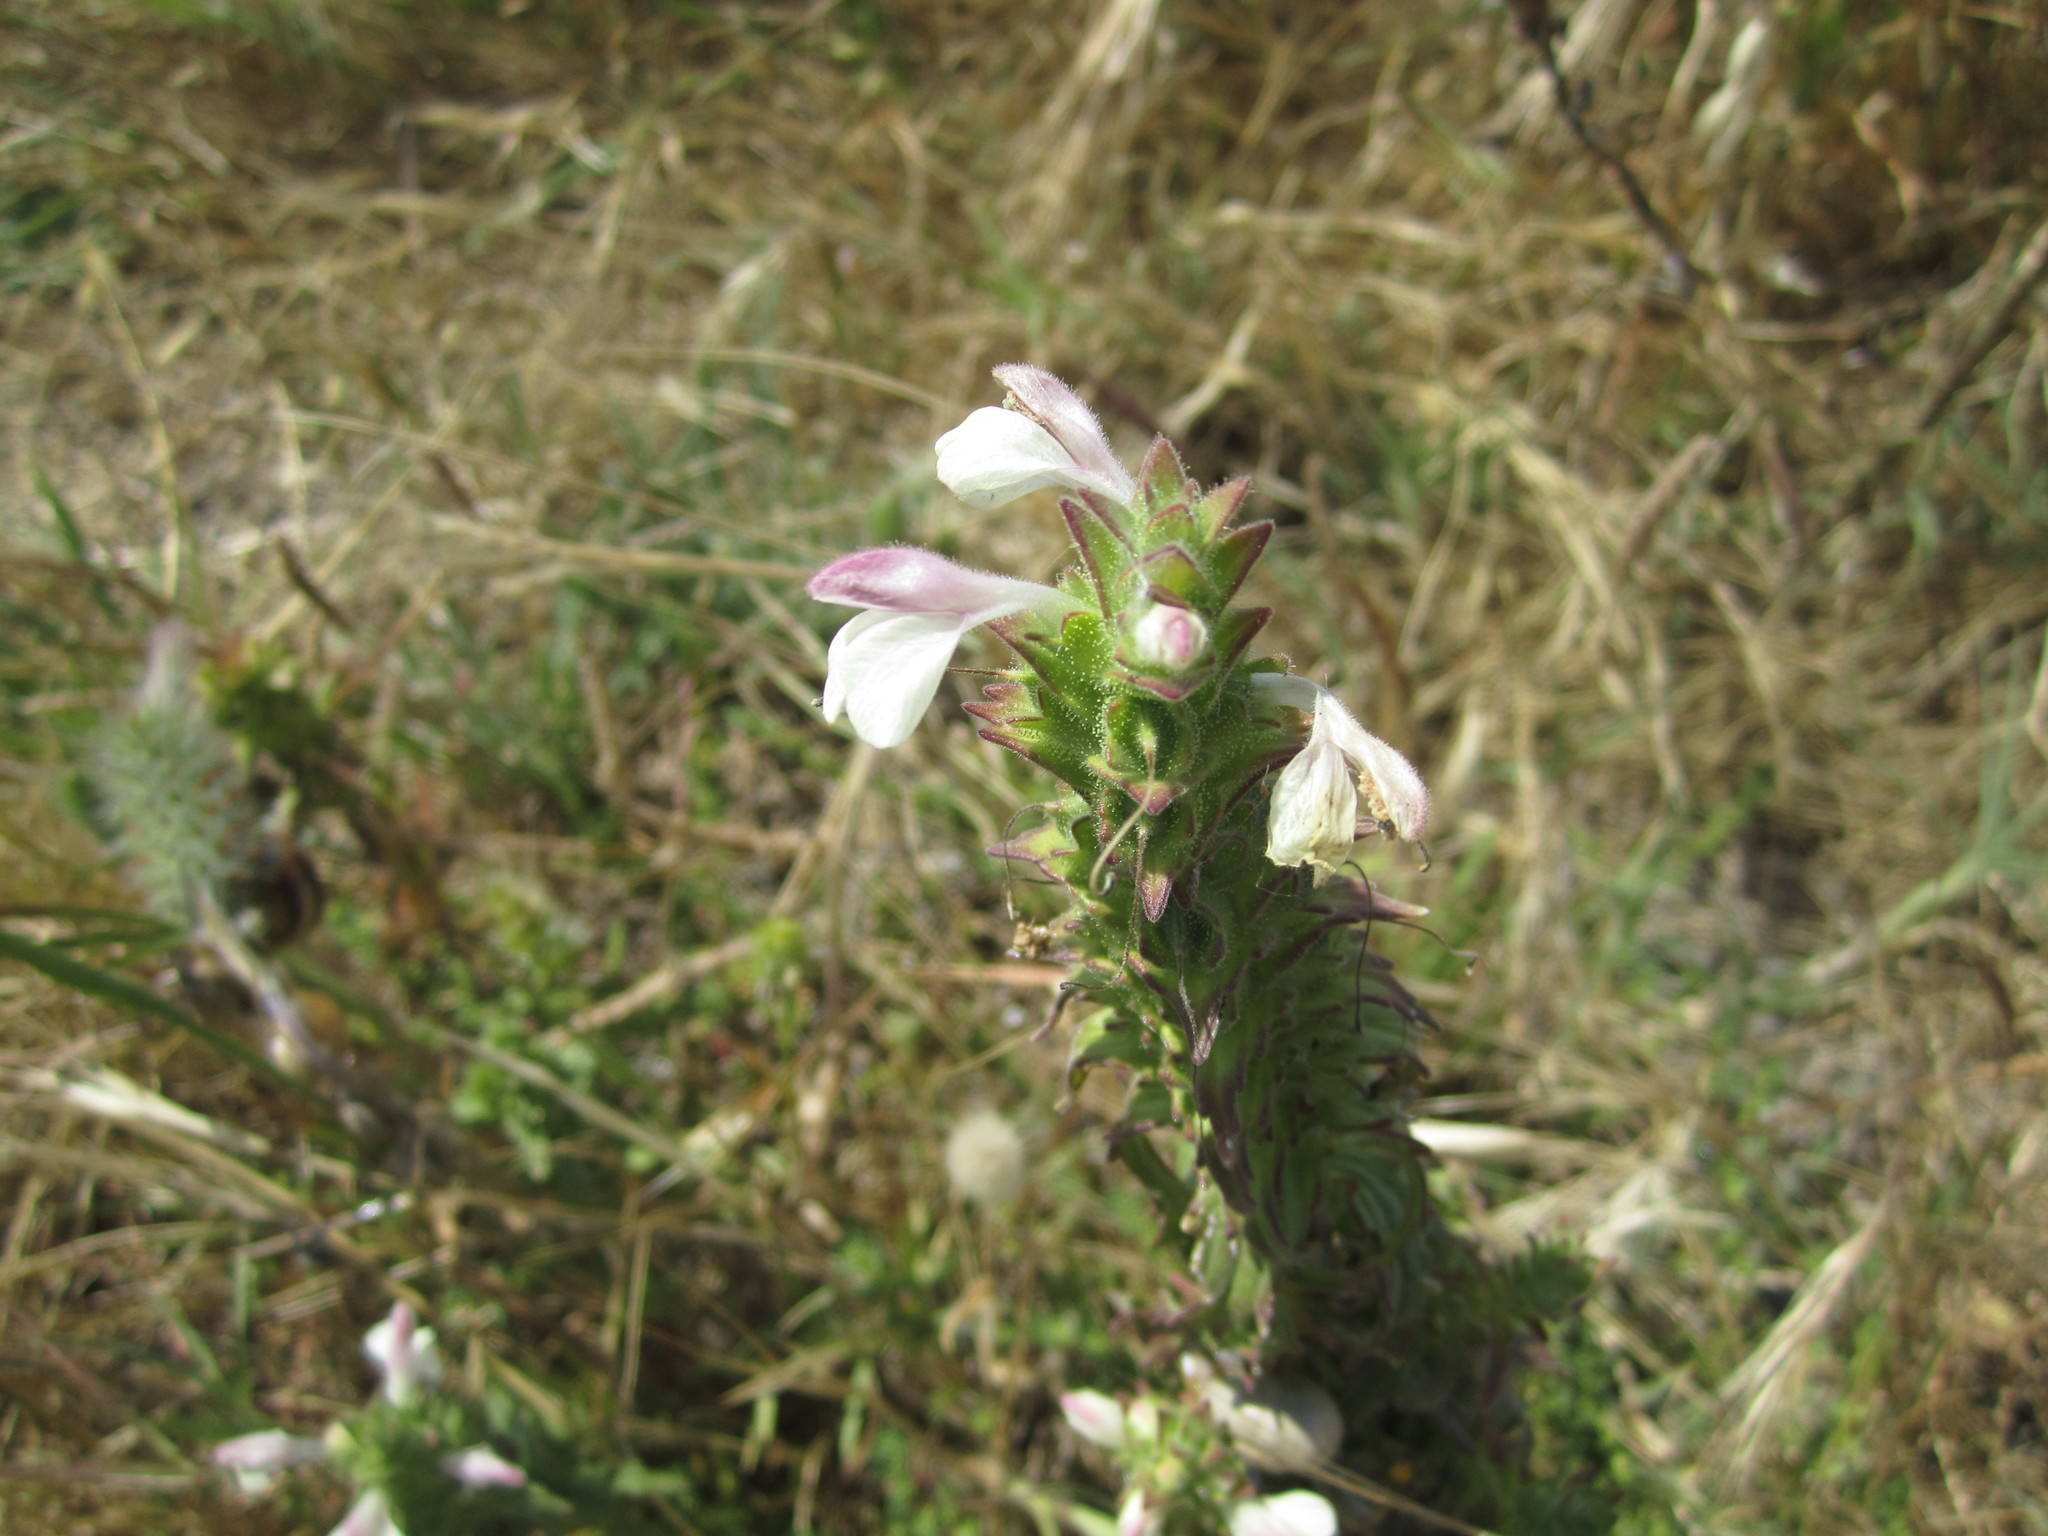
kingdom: Plantae
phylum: Tracheophyta
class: Magnoliopsida
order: Lamiales
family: Orobanchaceae
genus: Bellardia
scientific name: Bellardia trixago
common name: Mediterranean lineseed
